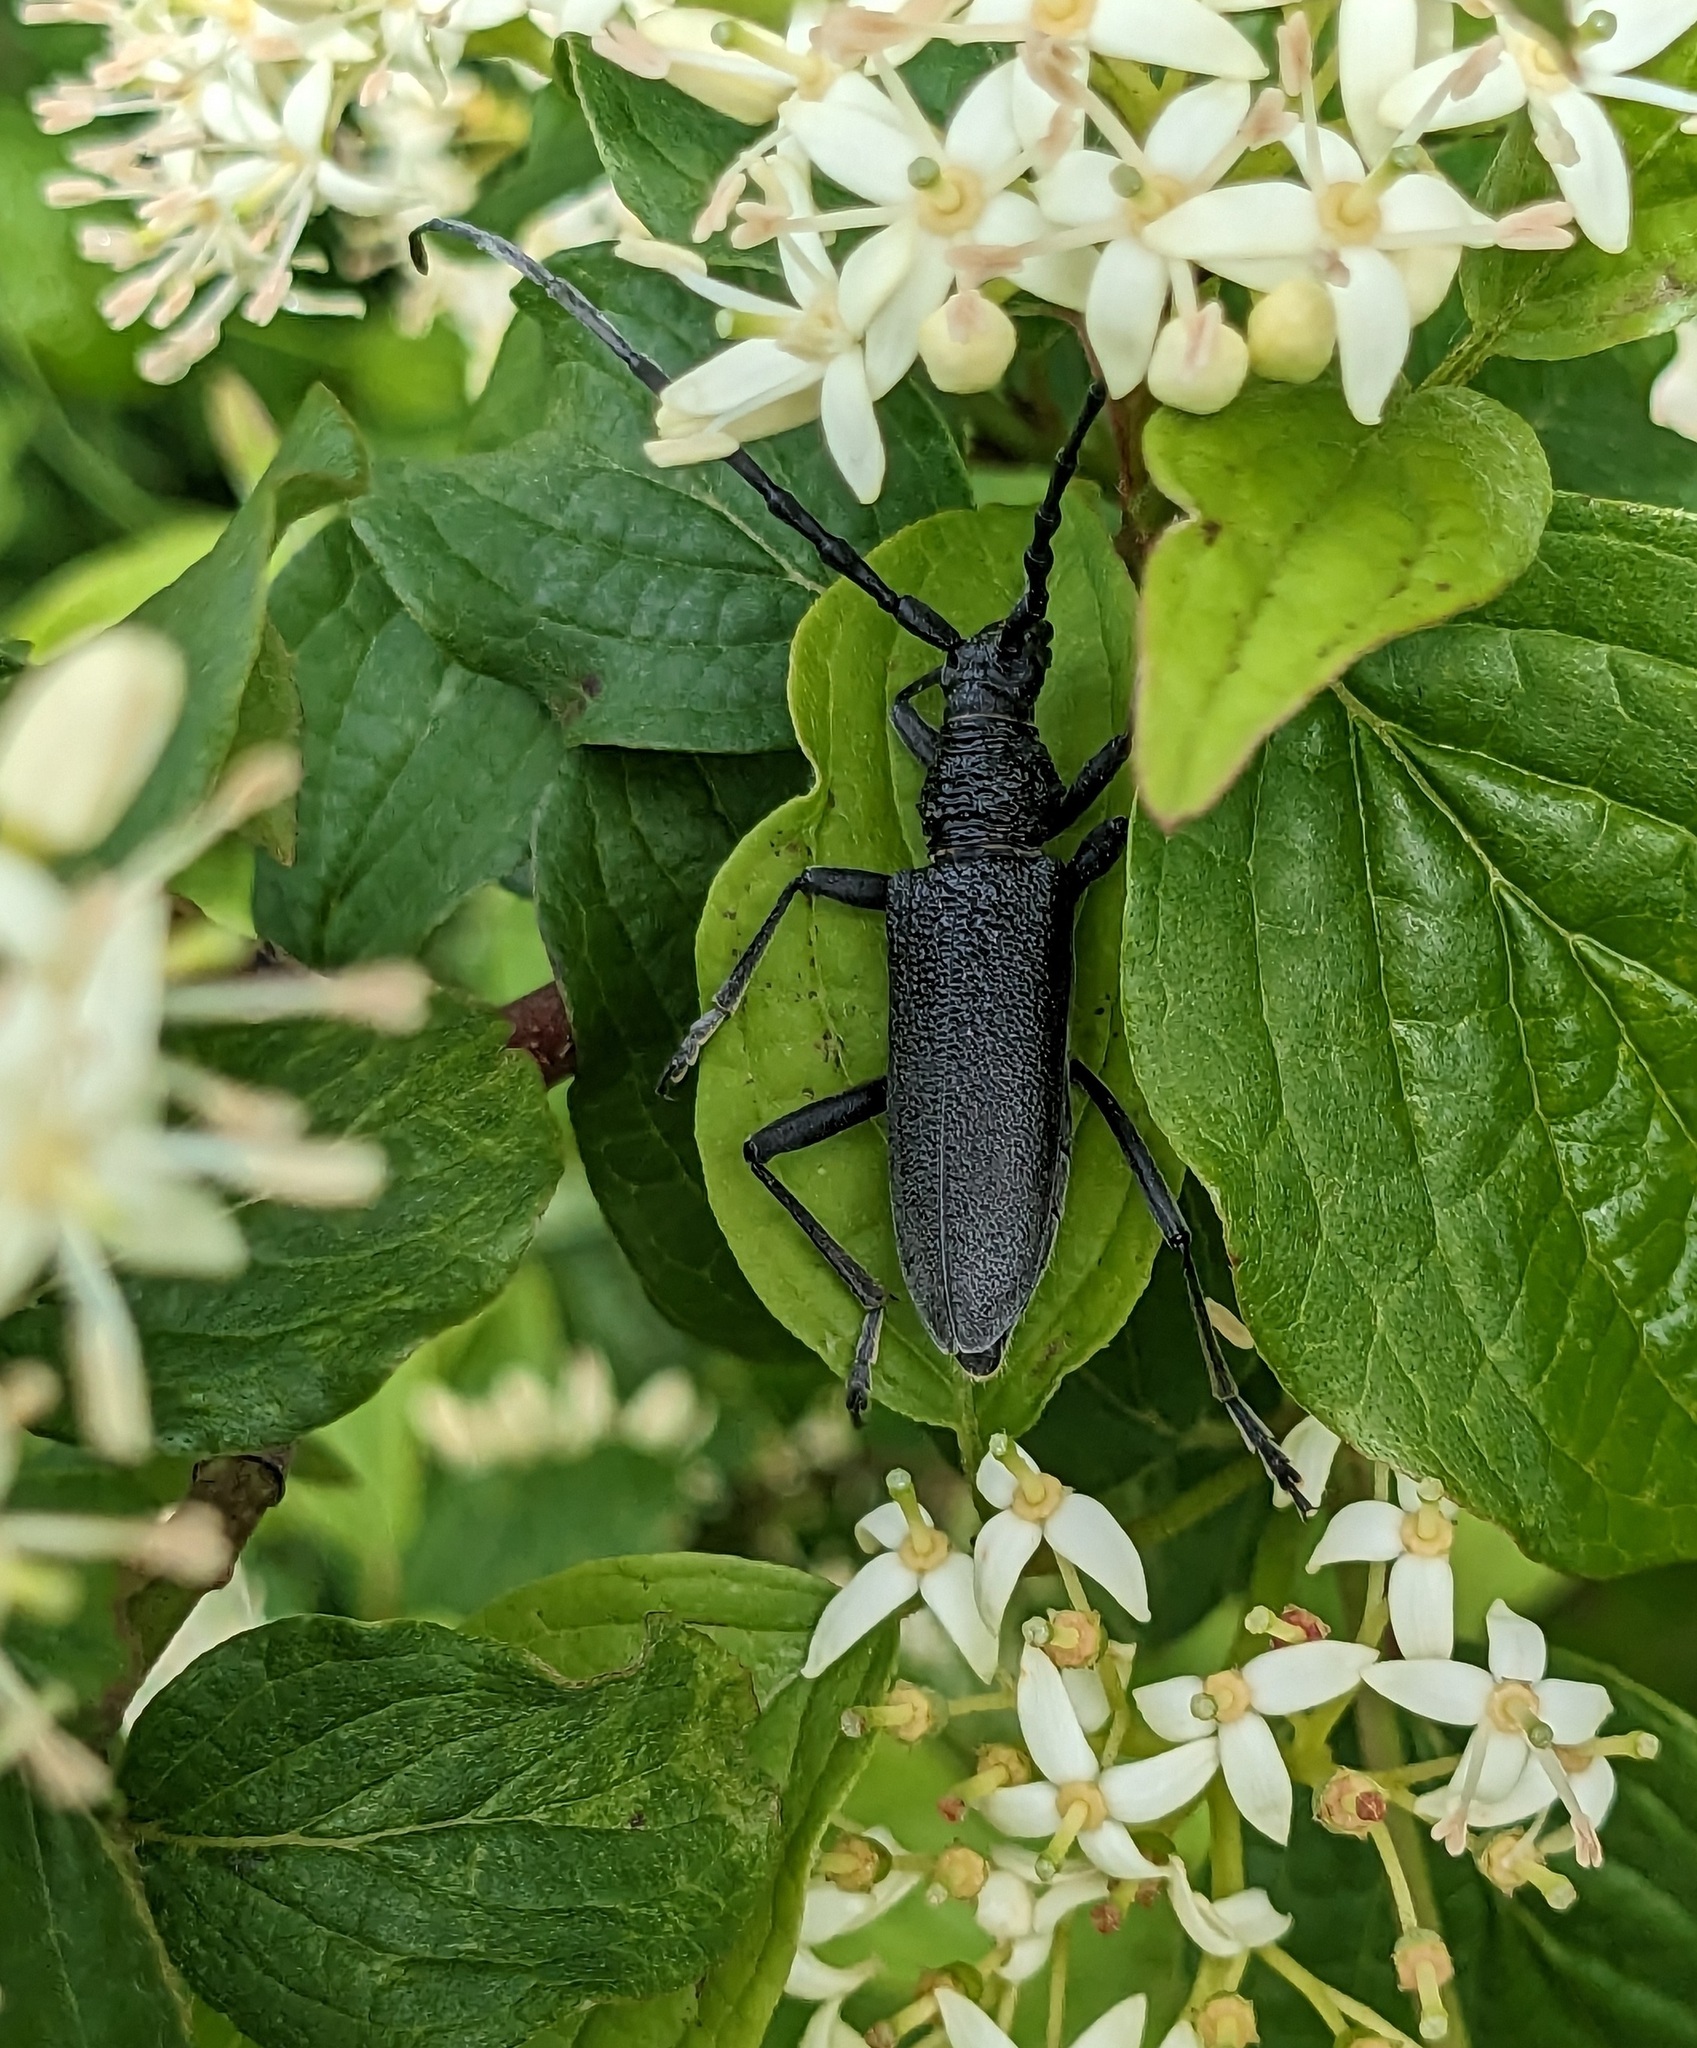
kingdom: Animalia
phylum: Arthropoda
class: Insecta
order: Coleoptera
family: Cerambycidae
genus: Cerambyx
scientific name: Cerambyx scopolii
